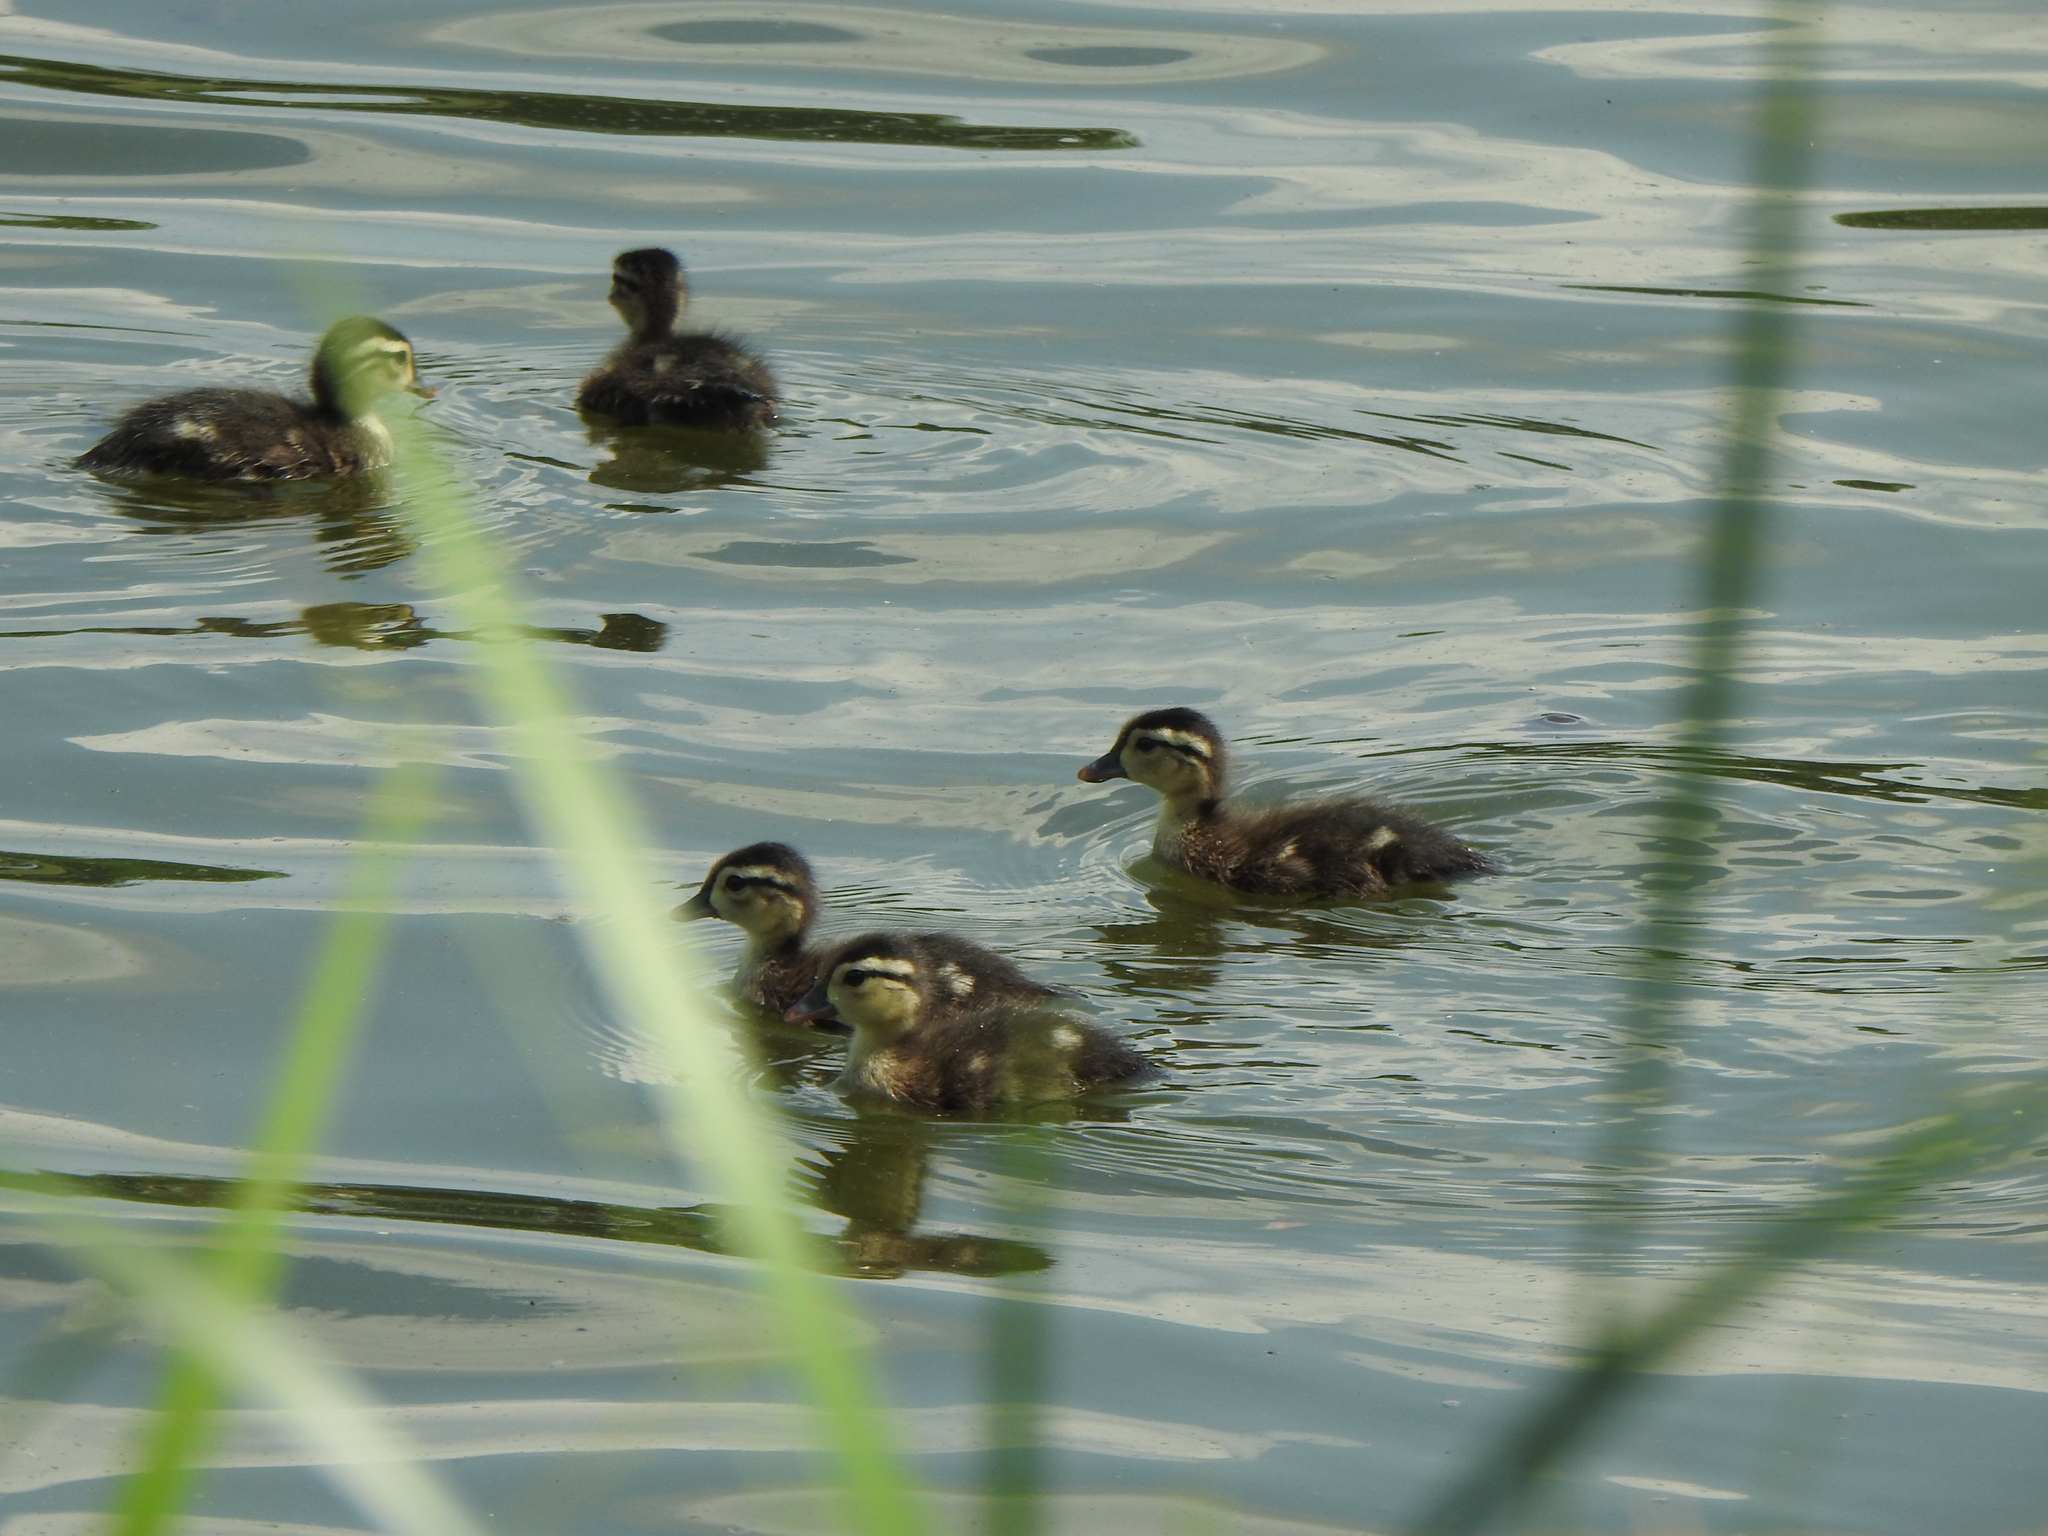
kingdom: Animalia
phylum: Chordata
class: Aves
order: Anseriformes
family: Anatidae
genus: Aix
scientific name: Aix sponsa
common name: Wood duck
